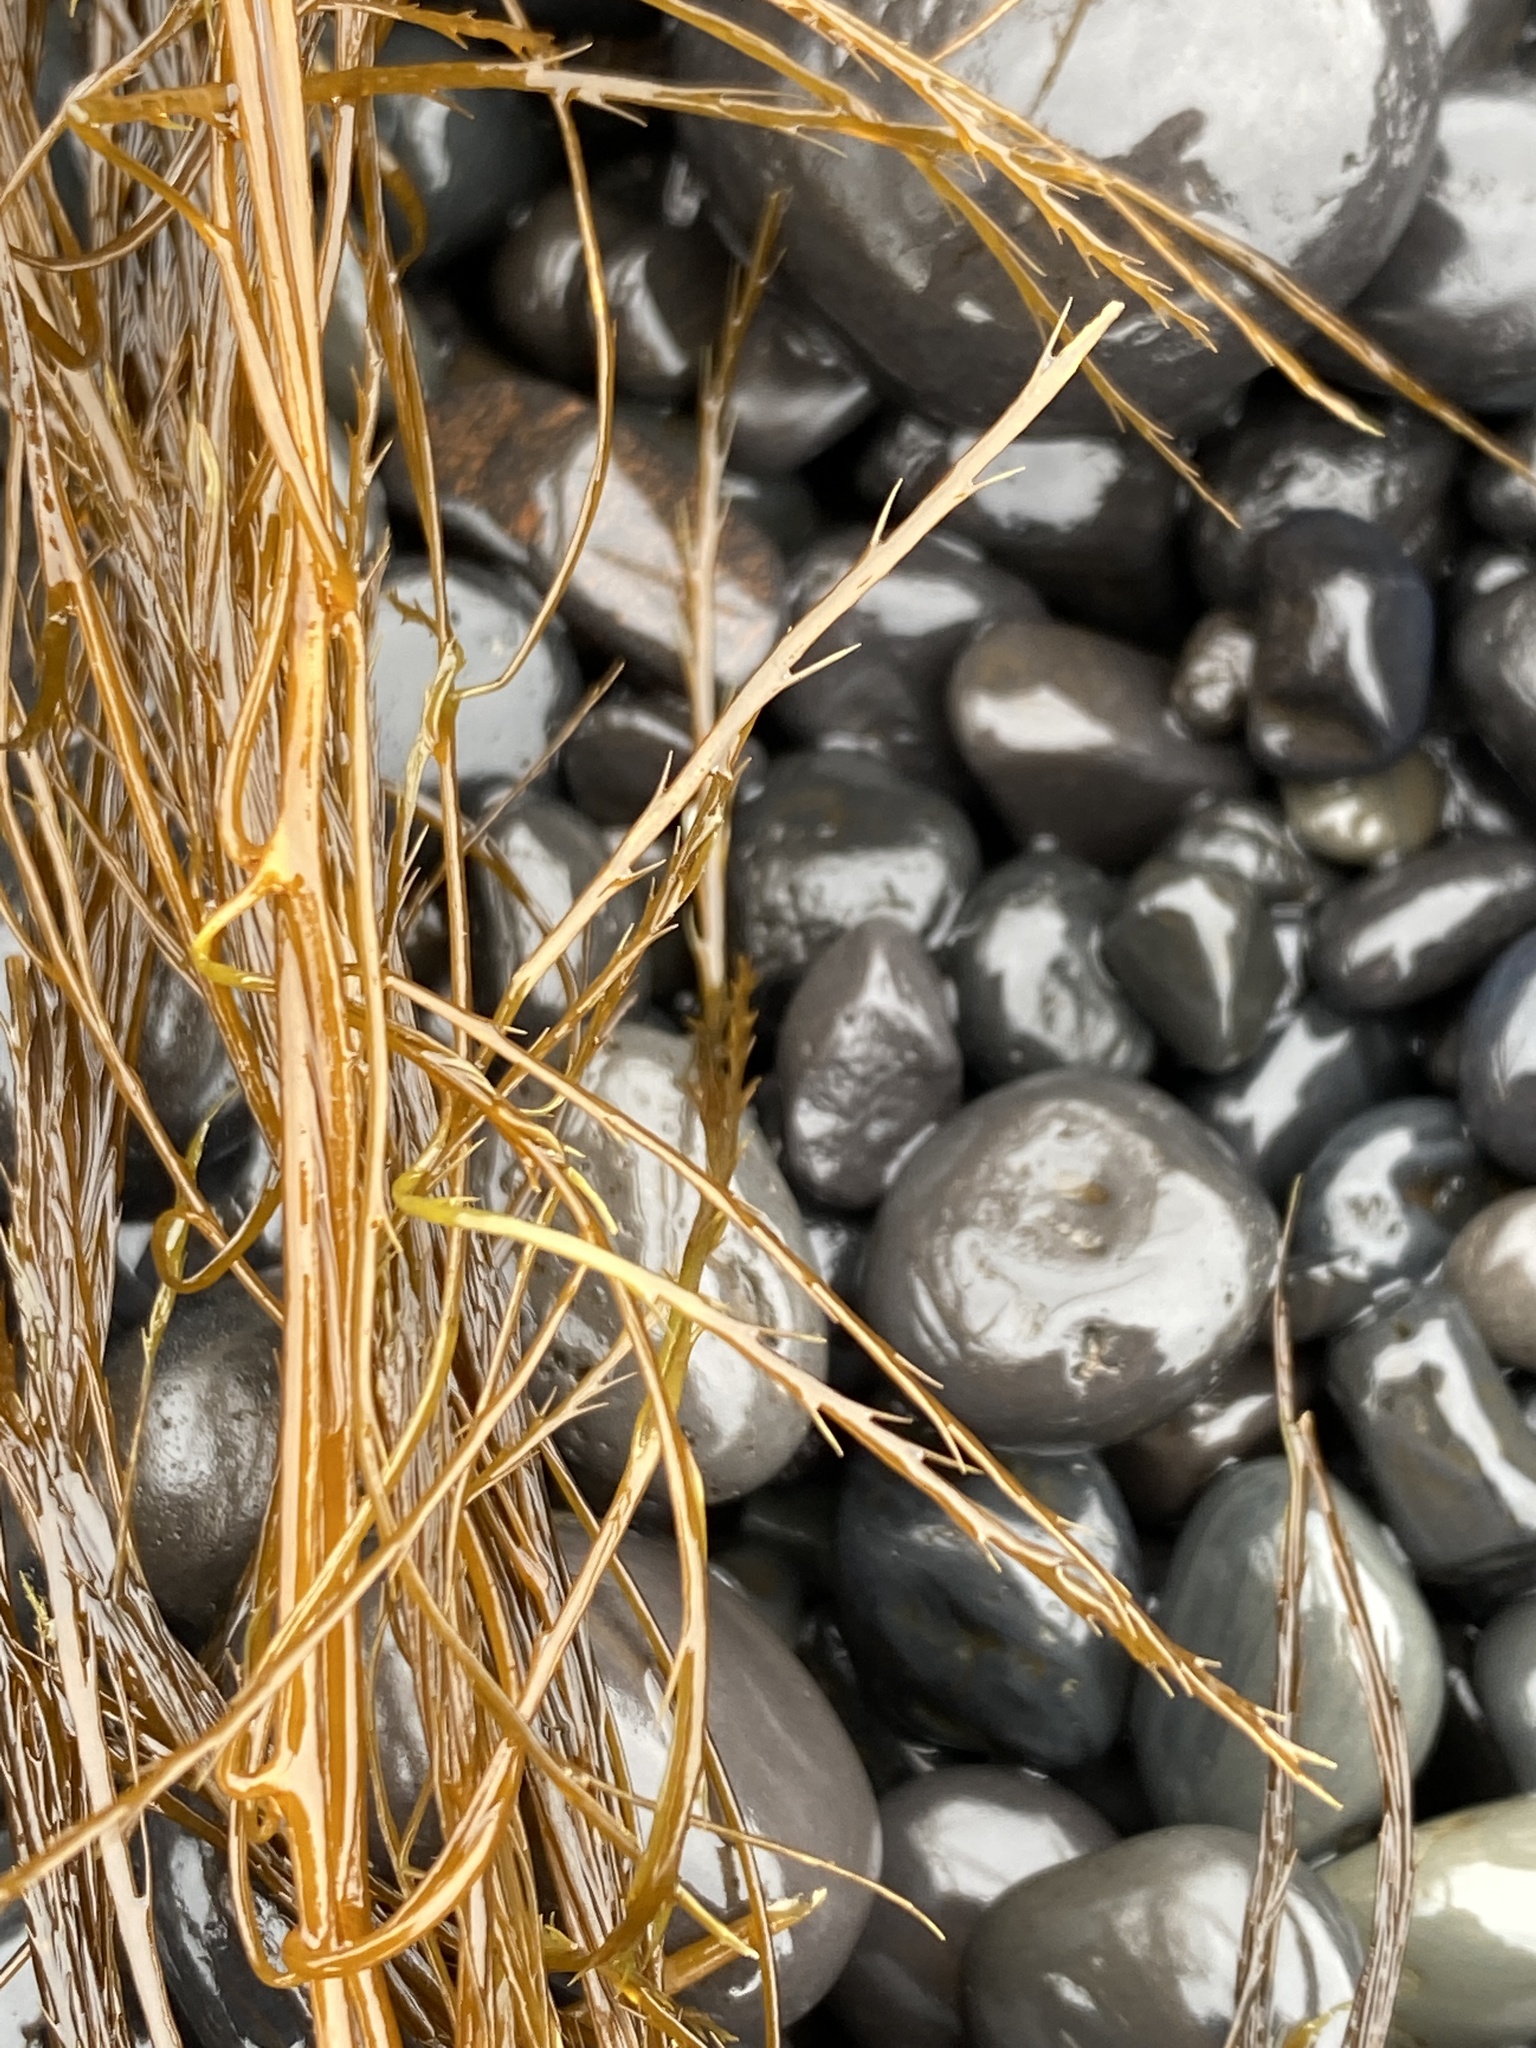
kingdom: Chromista
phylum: Ochrophyta
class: Phaeophyceae
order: Desmarestiales
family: Desmarestiaceae
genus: Desmarestia
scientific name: Desmarestia aculeata
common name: Witch's hair
